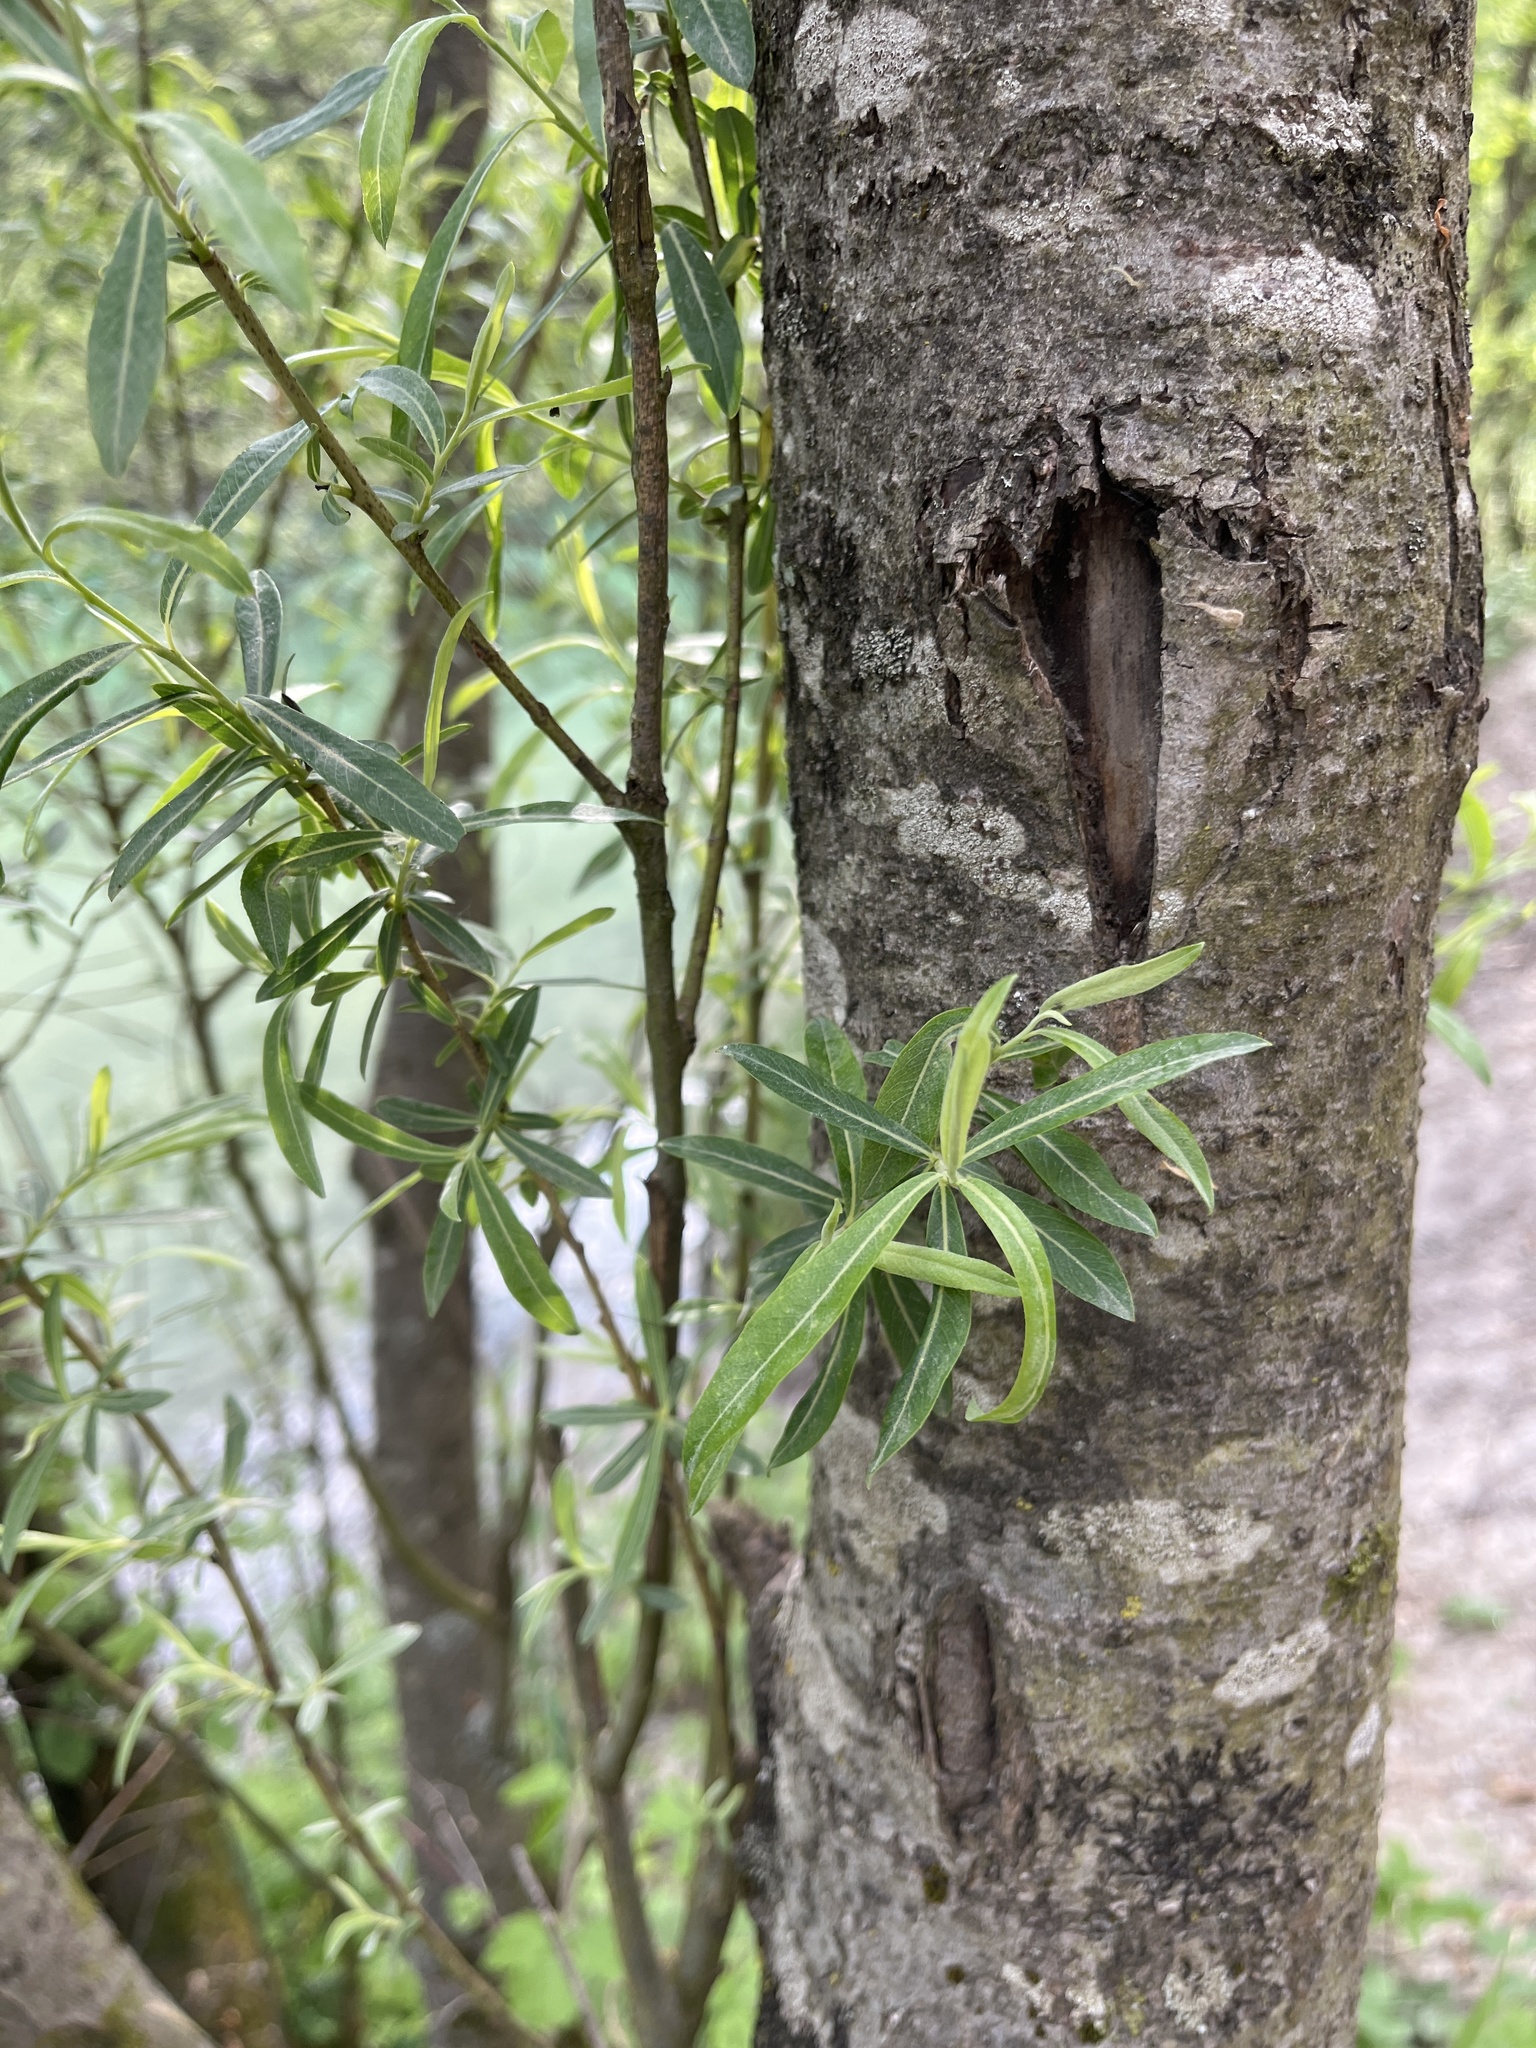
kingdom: Plantae
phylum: Tracheophyta
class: Magnoliopsida
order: Malpighiales
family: Salicaceae
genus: Salix
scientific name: Salix purpurea
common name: Purple willow
